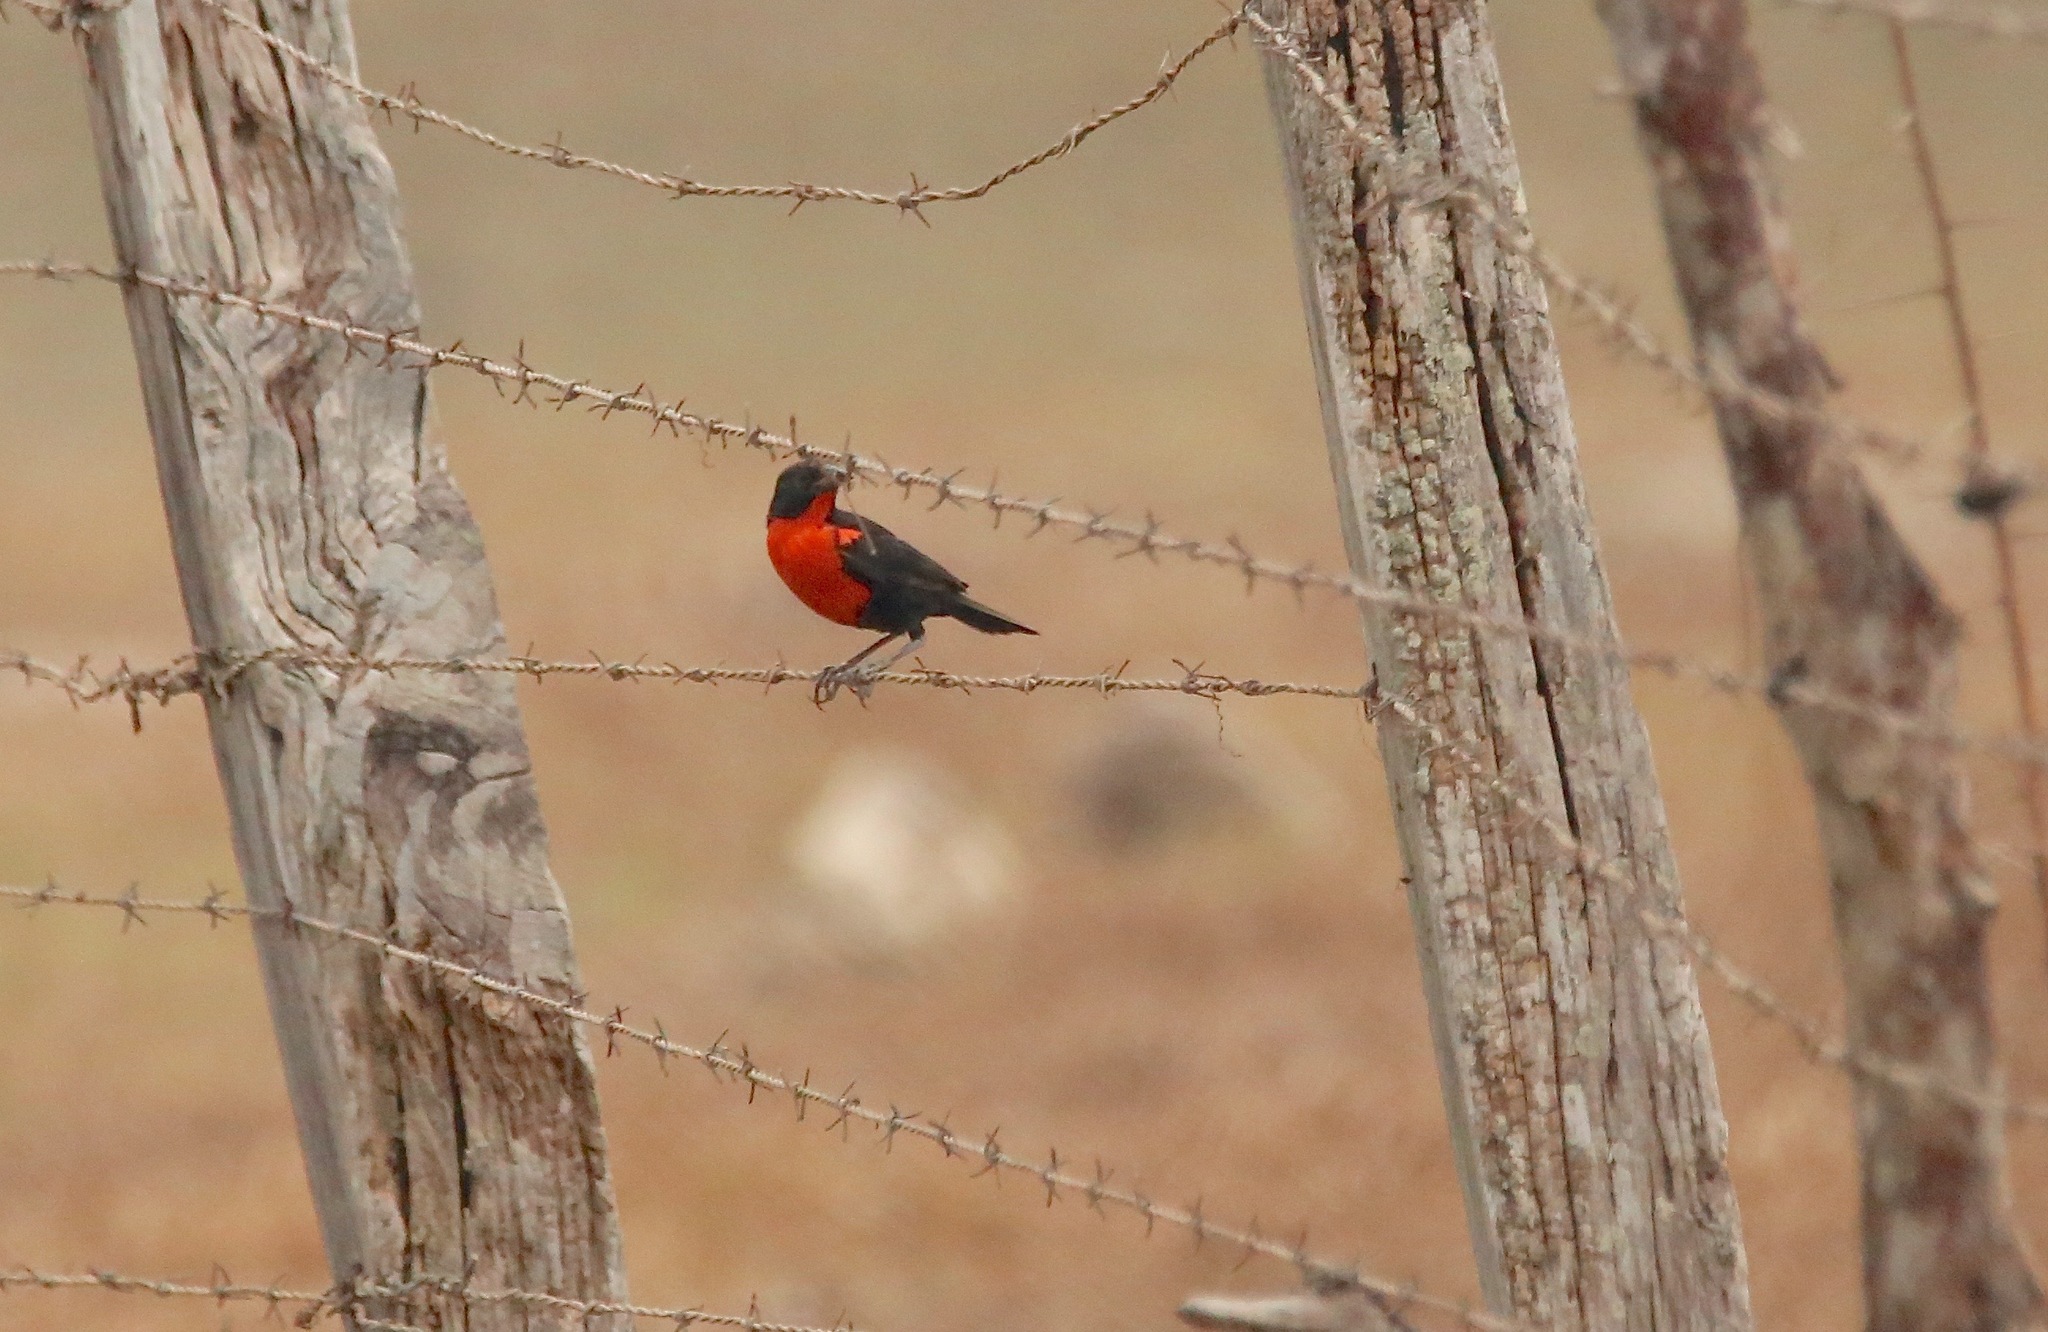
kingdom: Animalia
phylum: Chordata
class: Aves
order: Passeriformes
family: Icteridae
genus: Sturnella
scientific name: Sturnella militaris
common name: Red-breasted blackbird
